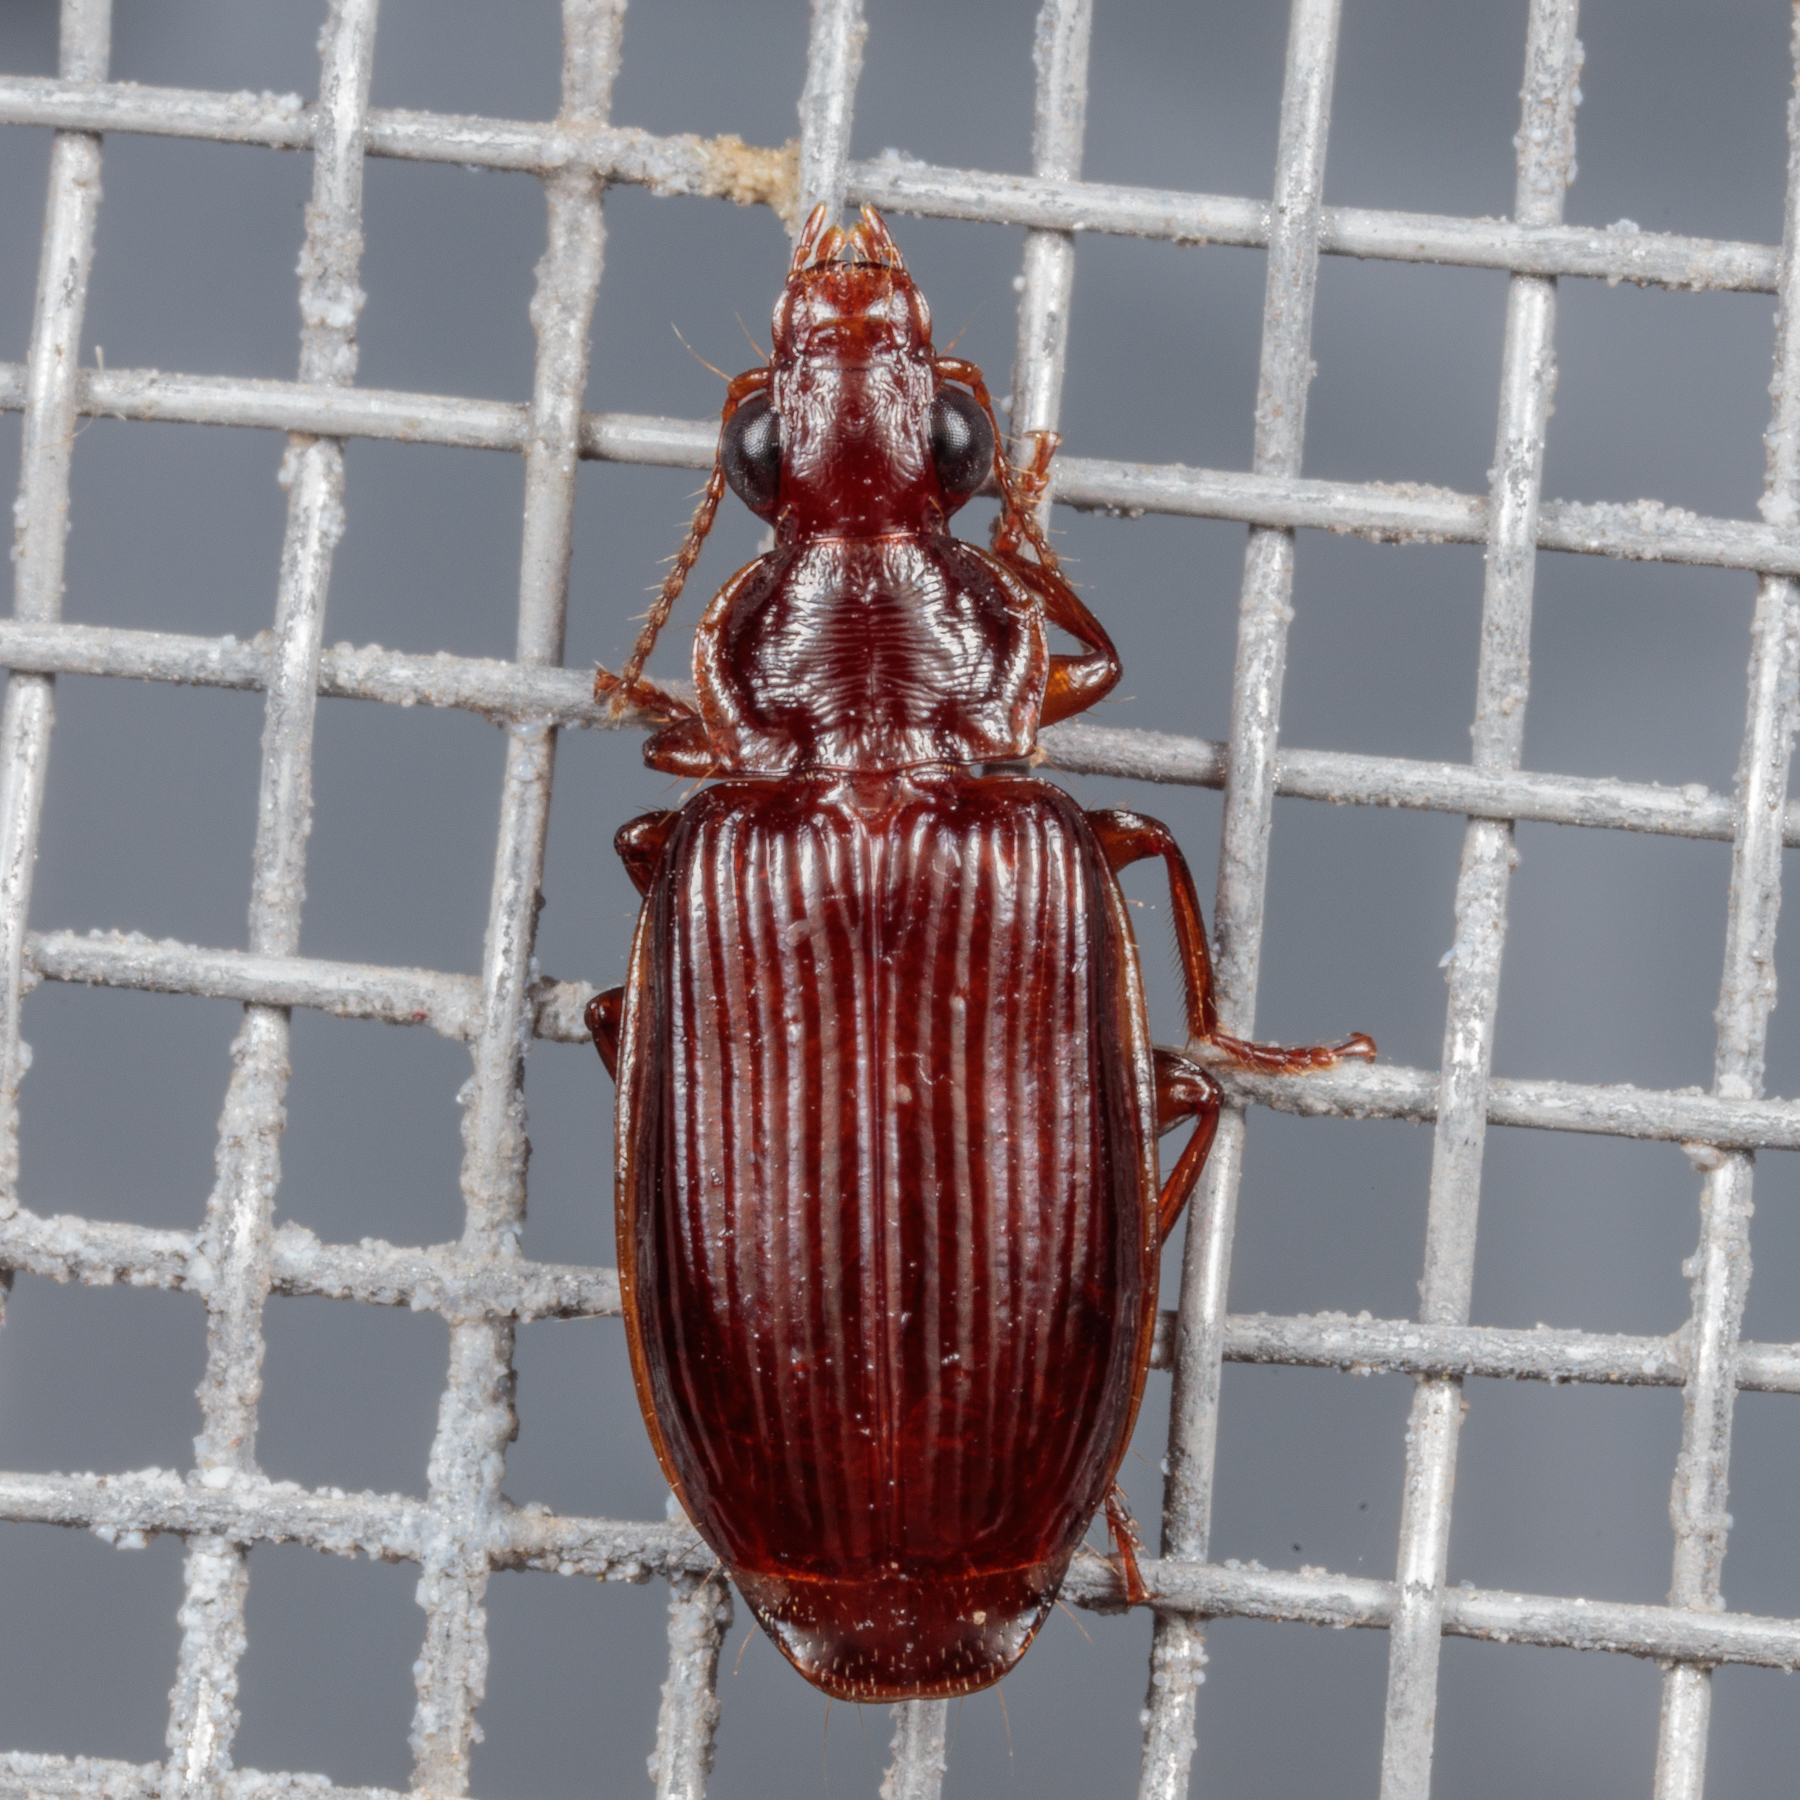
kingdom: Animalia
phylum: Arthropoda
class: Insecta
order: Coleoptera
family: Carabidae
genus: Plochionus
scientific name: Plochionus timidus
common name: Timid harp ground beetle
